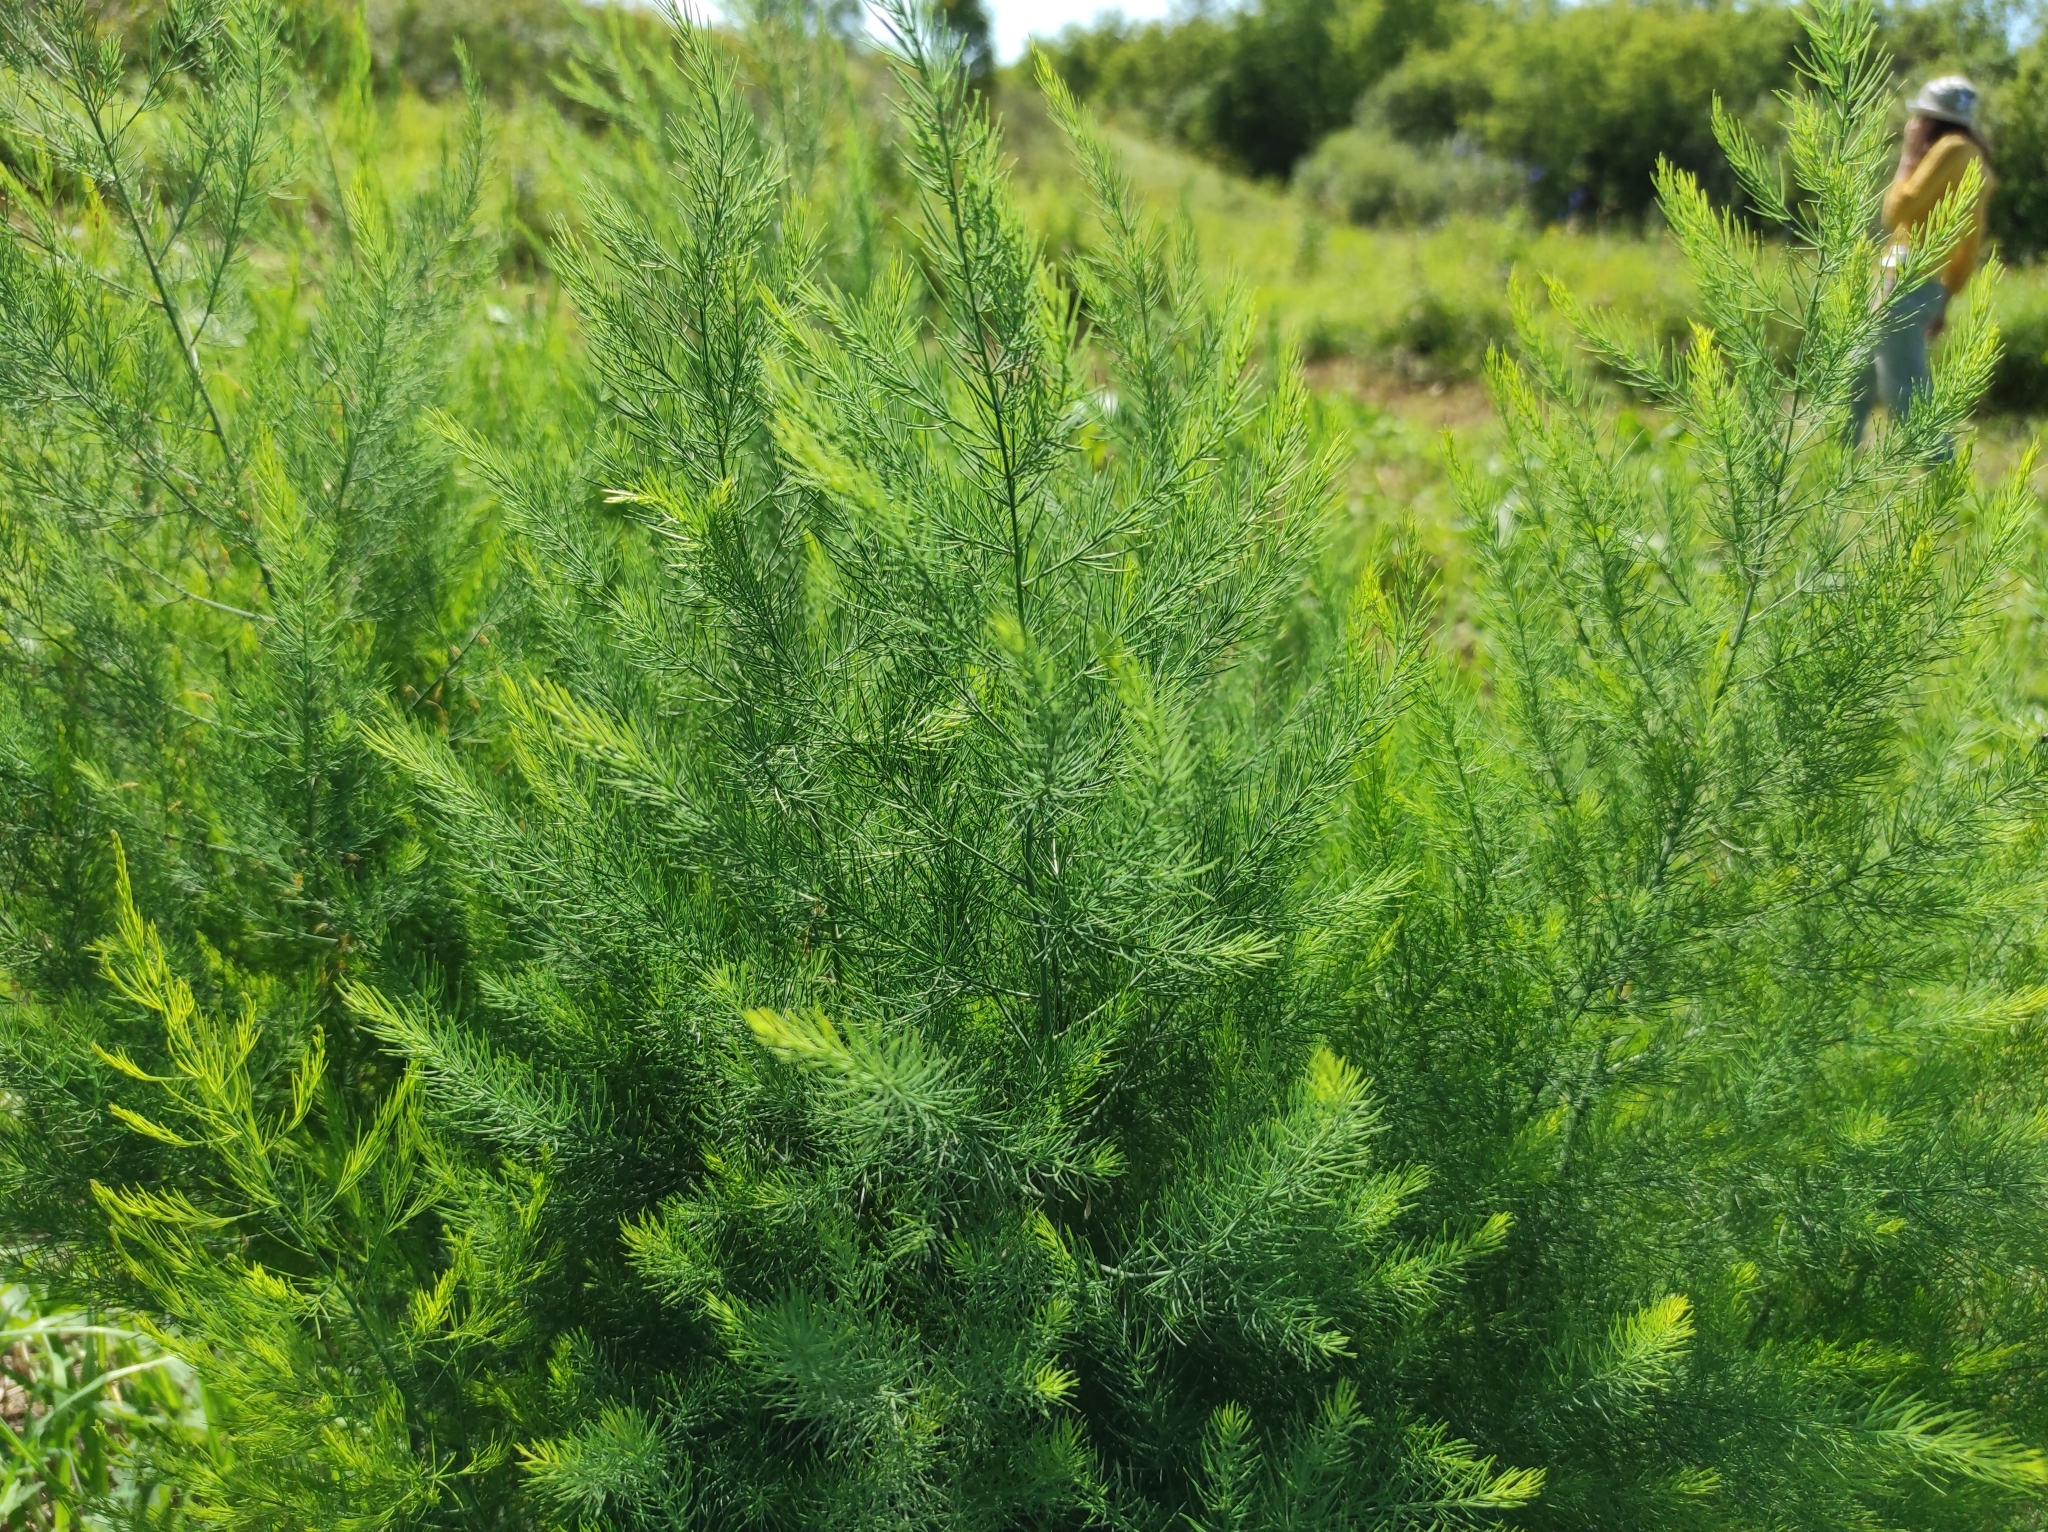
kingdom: Plantae
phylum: Tracheophyta
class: Liliopsida
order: Asparagales
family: Asparagaceae
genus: Asparagus
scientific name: Asparagus officinalis
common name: Garden asparagus
